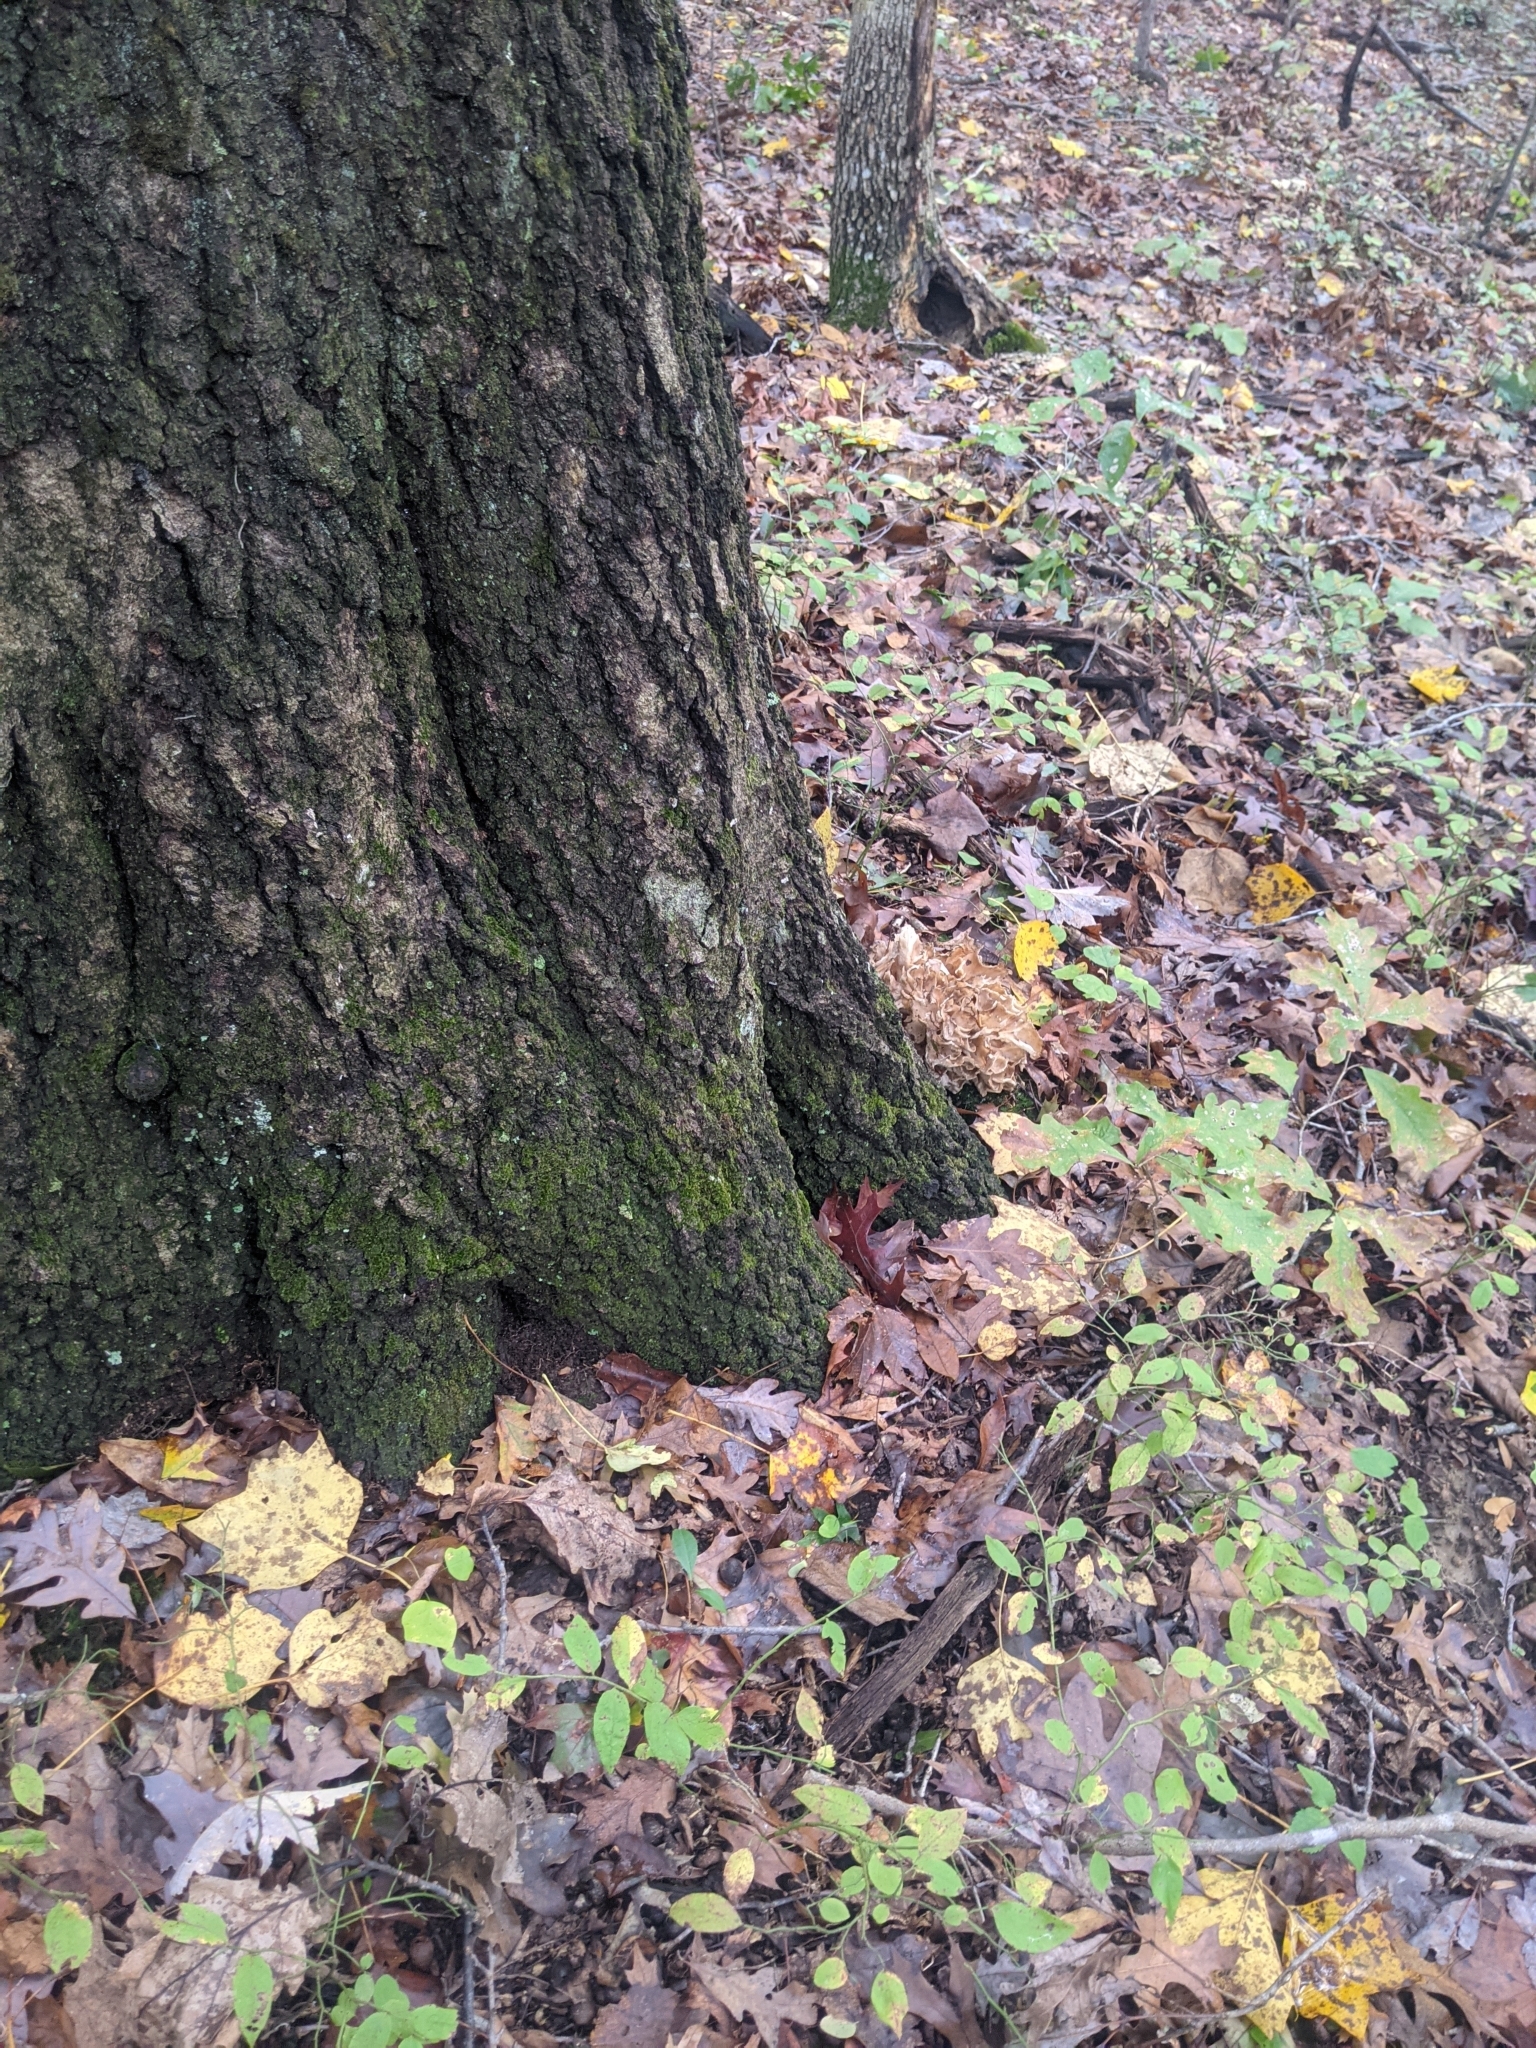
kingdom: Fungi
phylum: Basidiomycota
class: Agaricomycetes
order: Polyporales
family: Grifolaceae
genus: Grifola
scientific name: Grifola frondosa
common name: Hen of the woods
